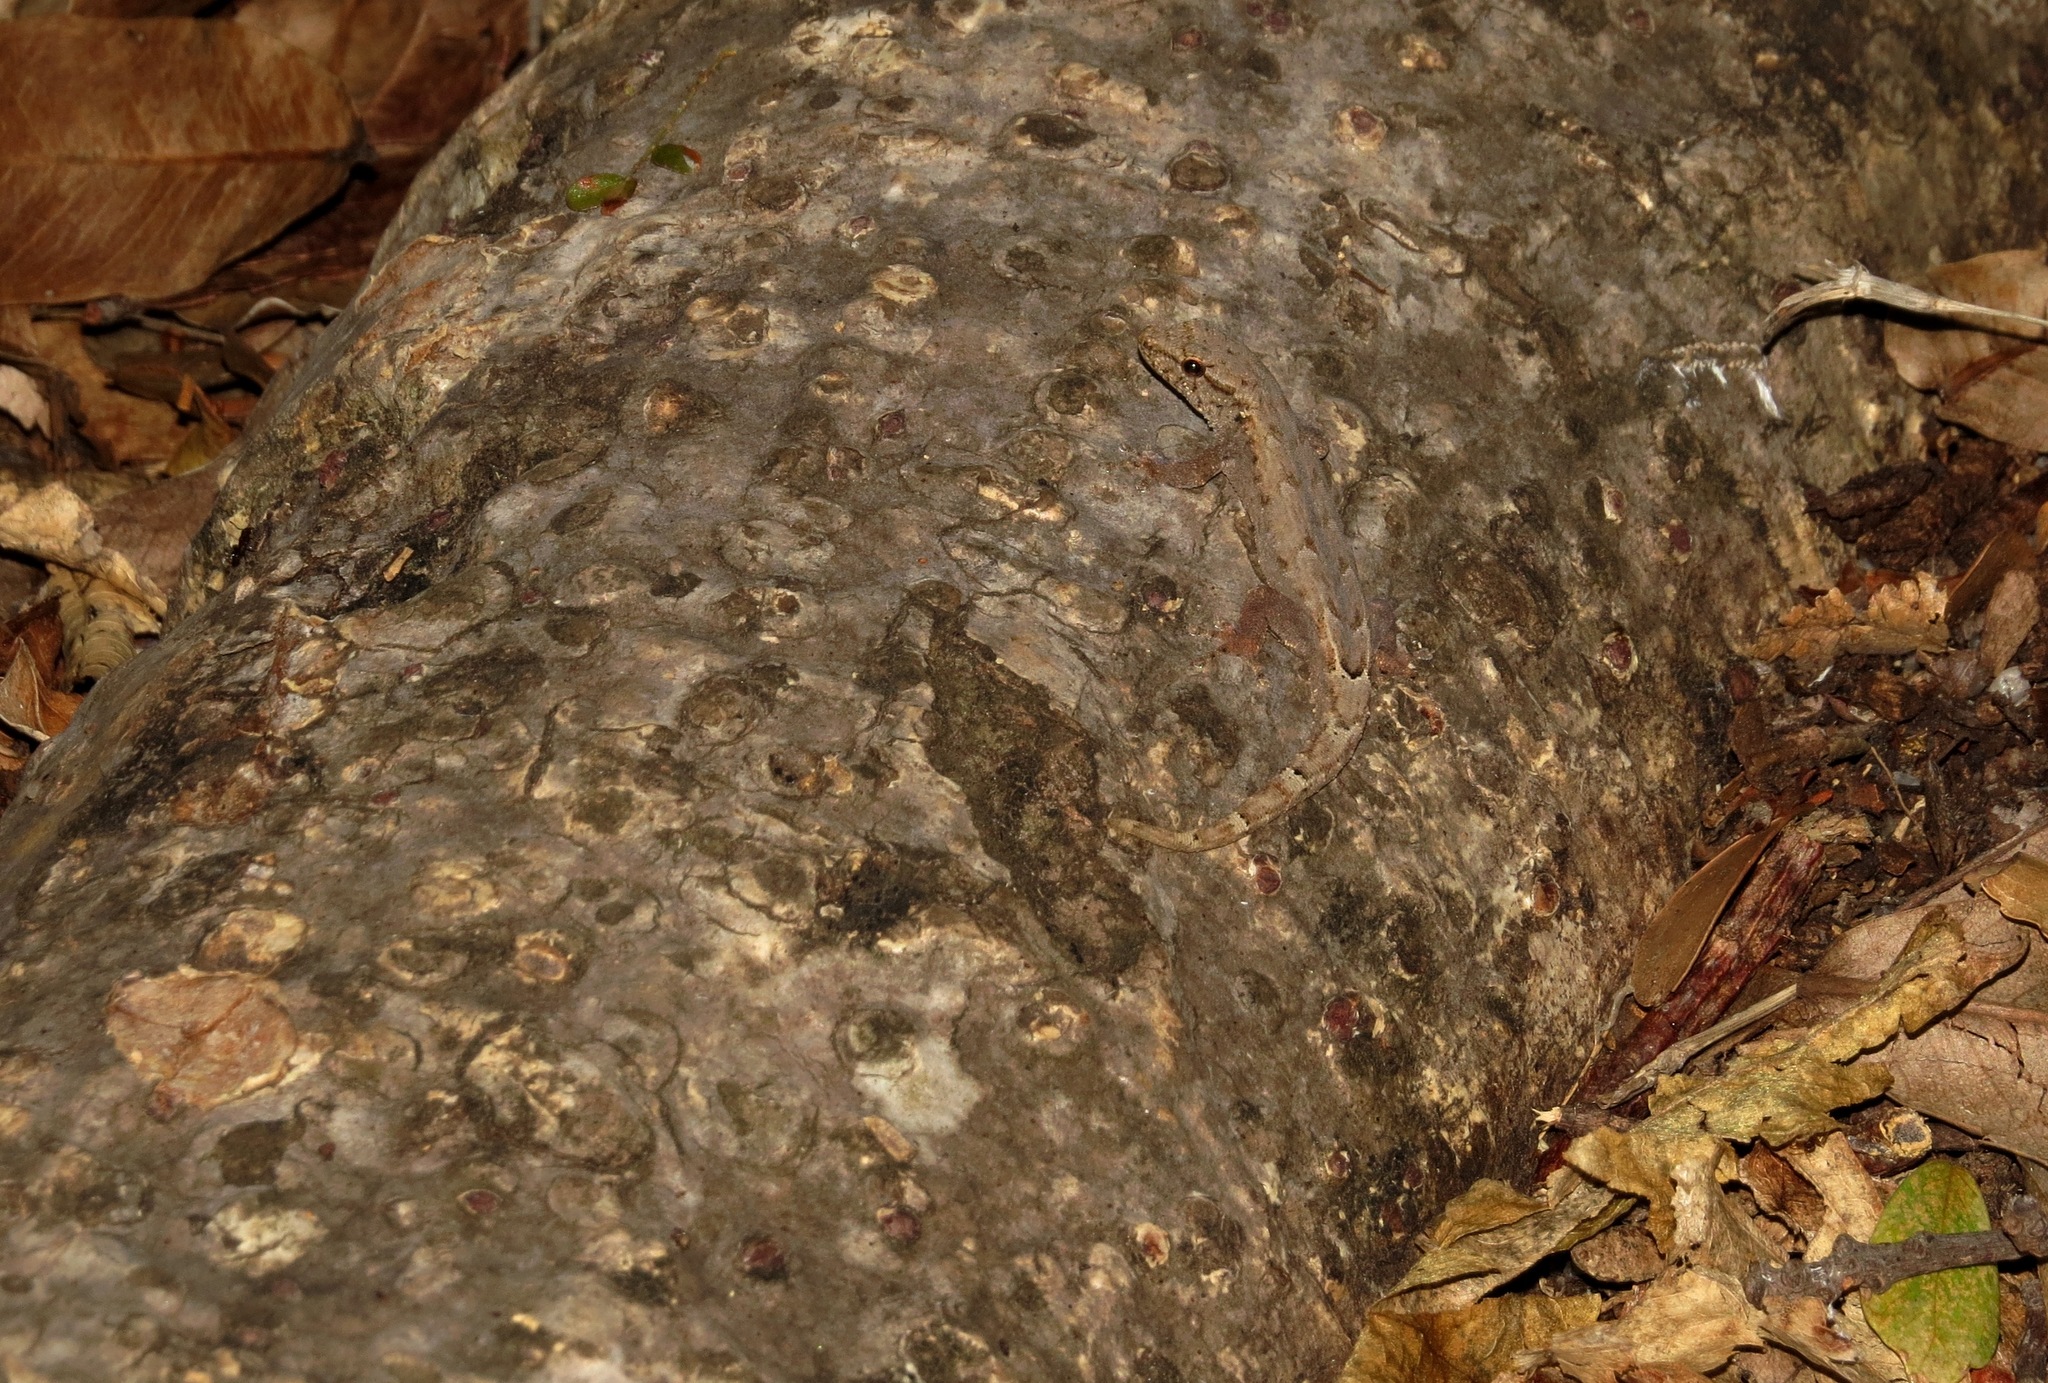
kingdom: Animalia
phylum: Chordata
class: Squamata
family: Gekkonidae
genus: Lygodactylus
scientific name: Lygodactylus tolampyae
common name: Grandidier's dwarf gecko
